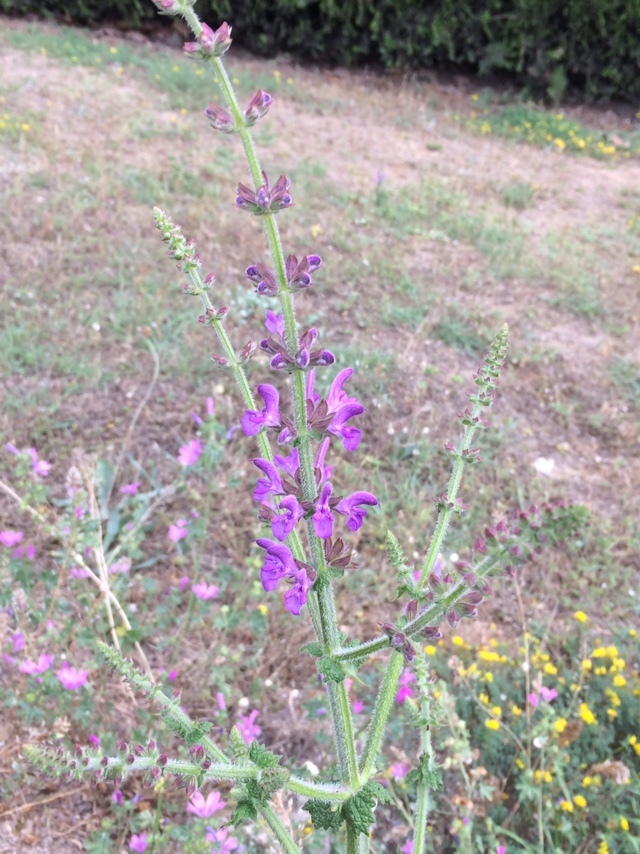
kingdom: Plantae
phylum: Tracheophyta
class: Magnoliopsida
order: Lamiales
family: Lamiaceae
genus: Salvia
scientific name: Salvia virgata
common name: Wand sage
